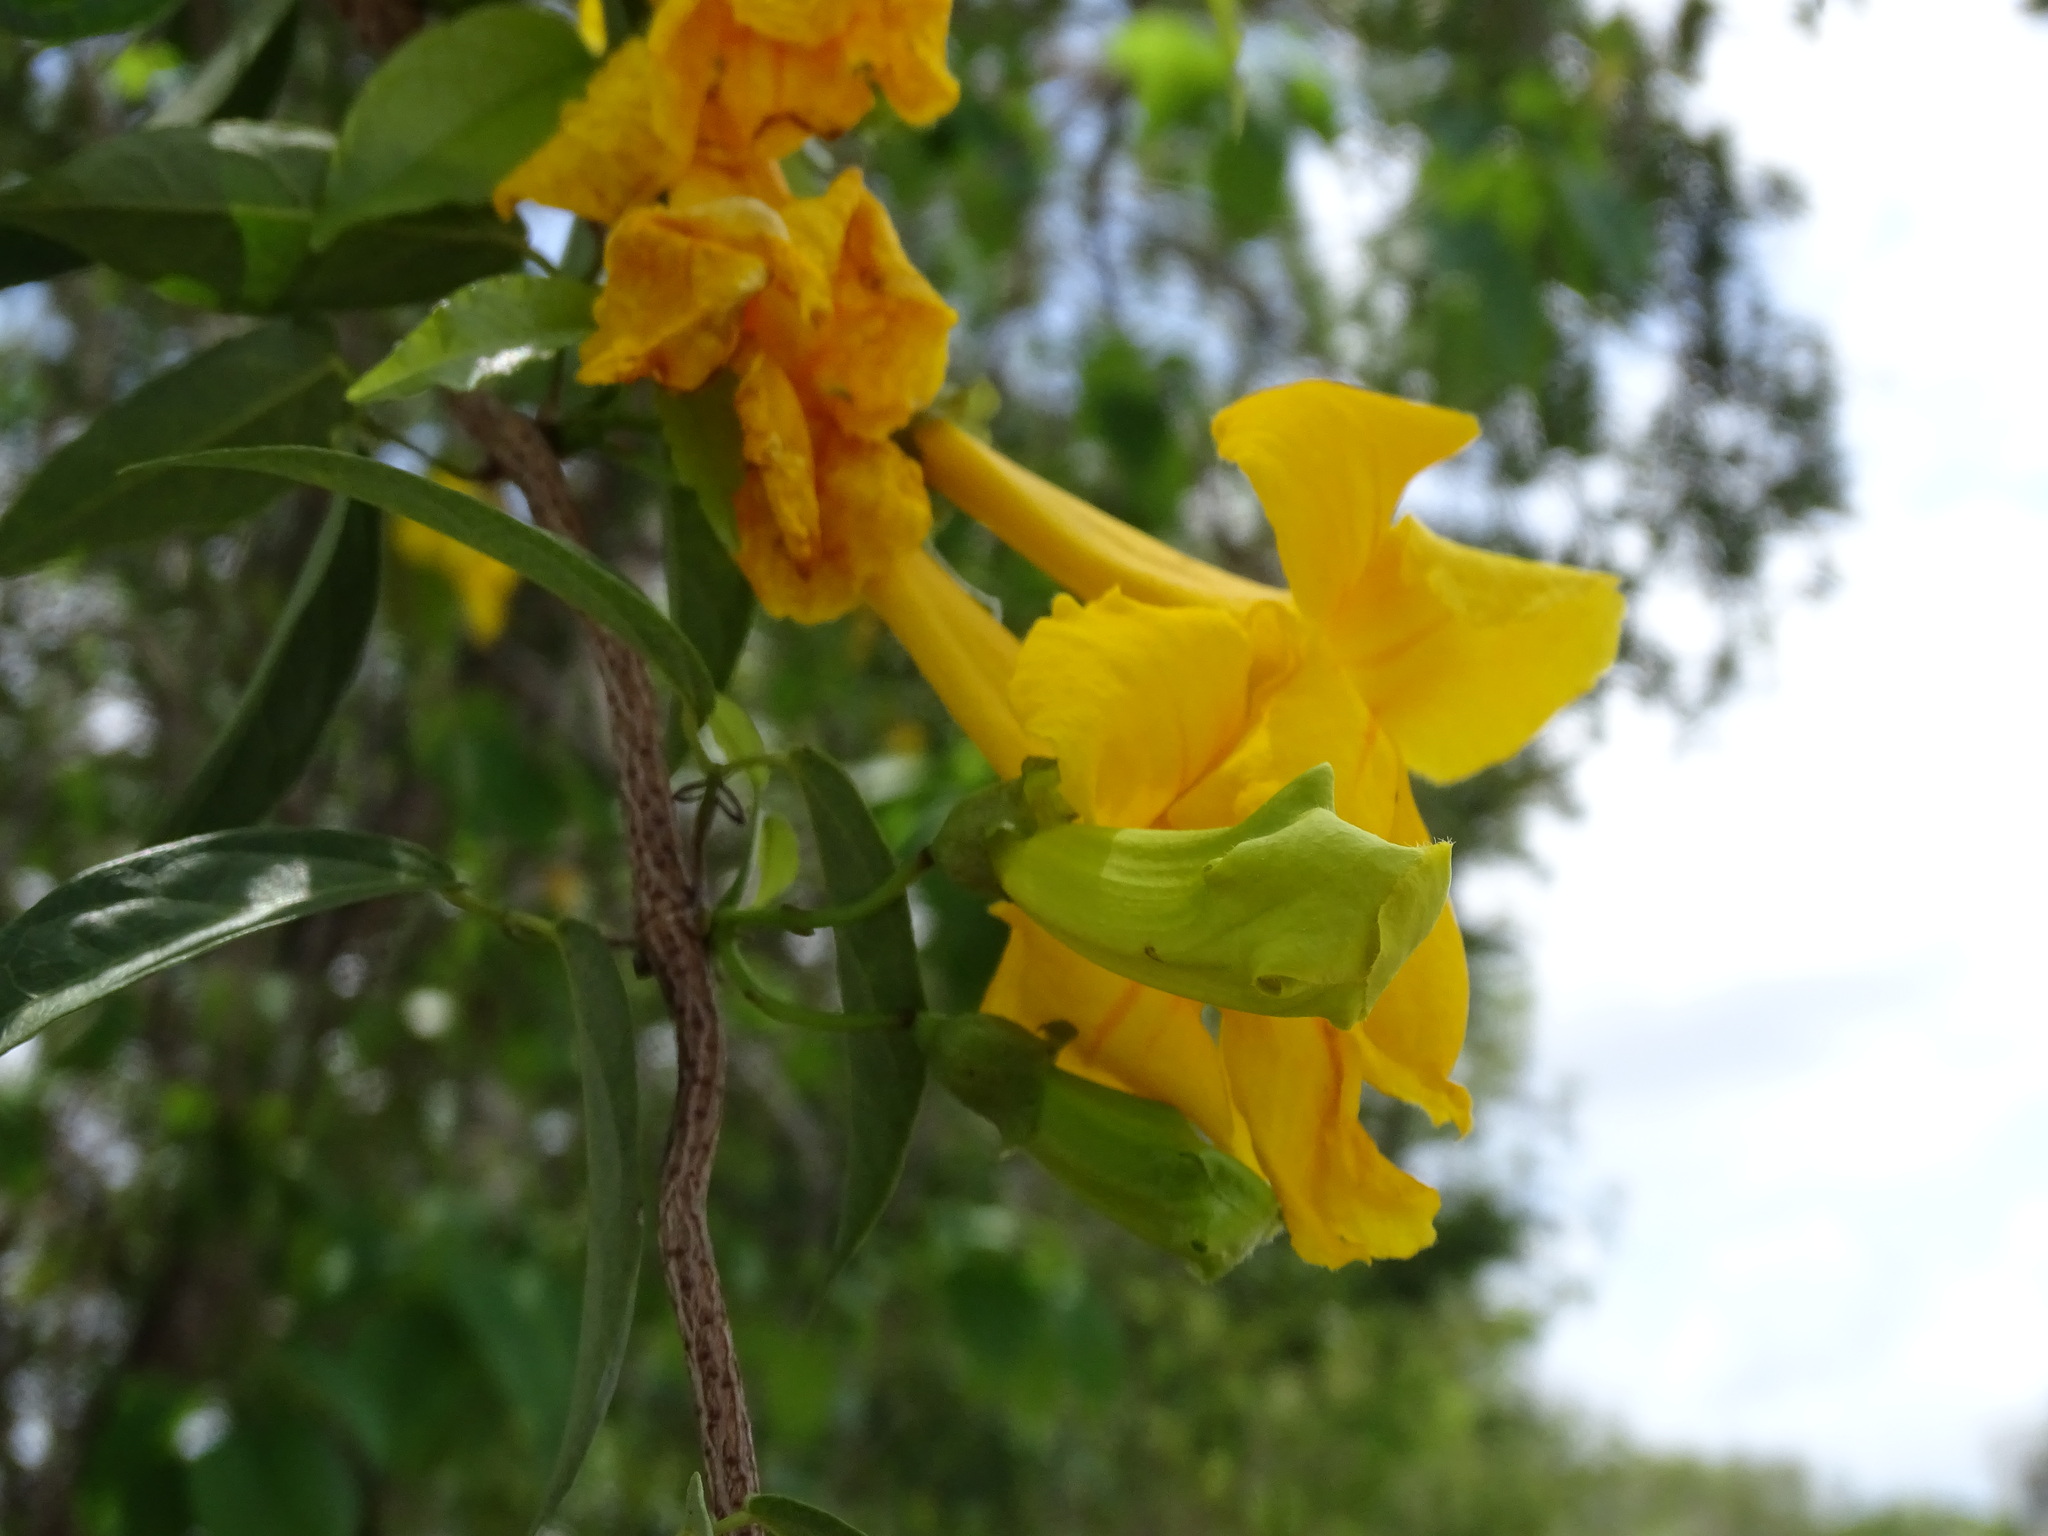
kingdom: Plantae
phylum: Tracheophyta
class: Magnoliopsida
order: Lamiales
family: Bignoniaceae
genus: Dolichandra
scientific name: Dolichandra unguis-cati
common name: Catclaw vine
